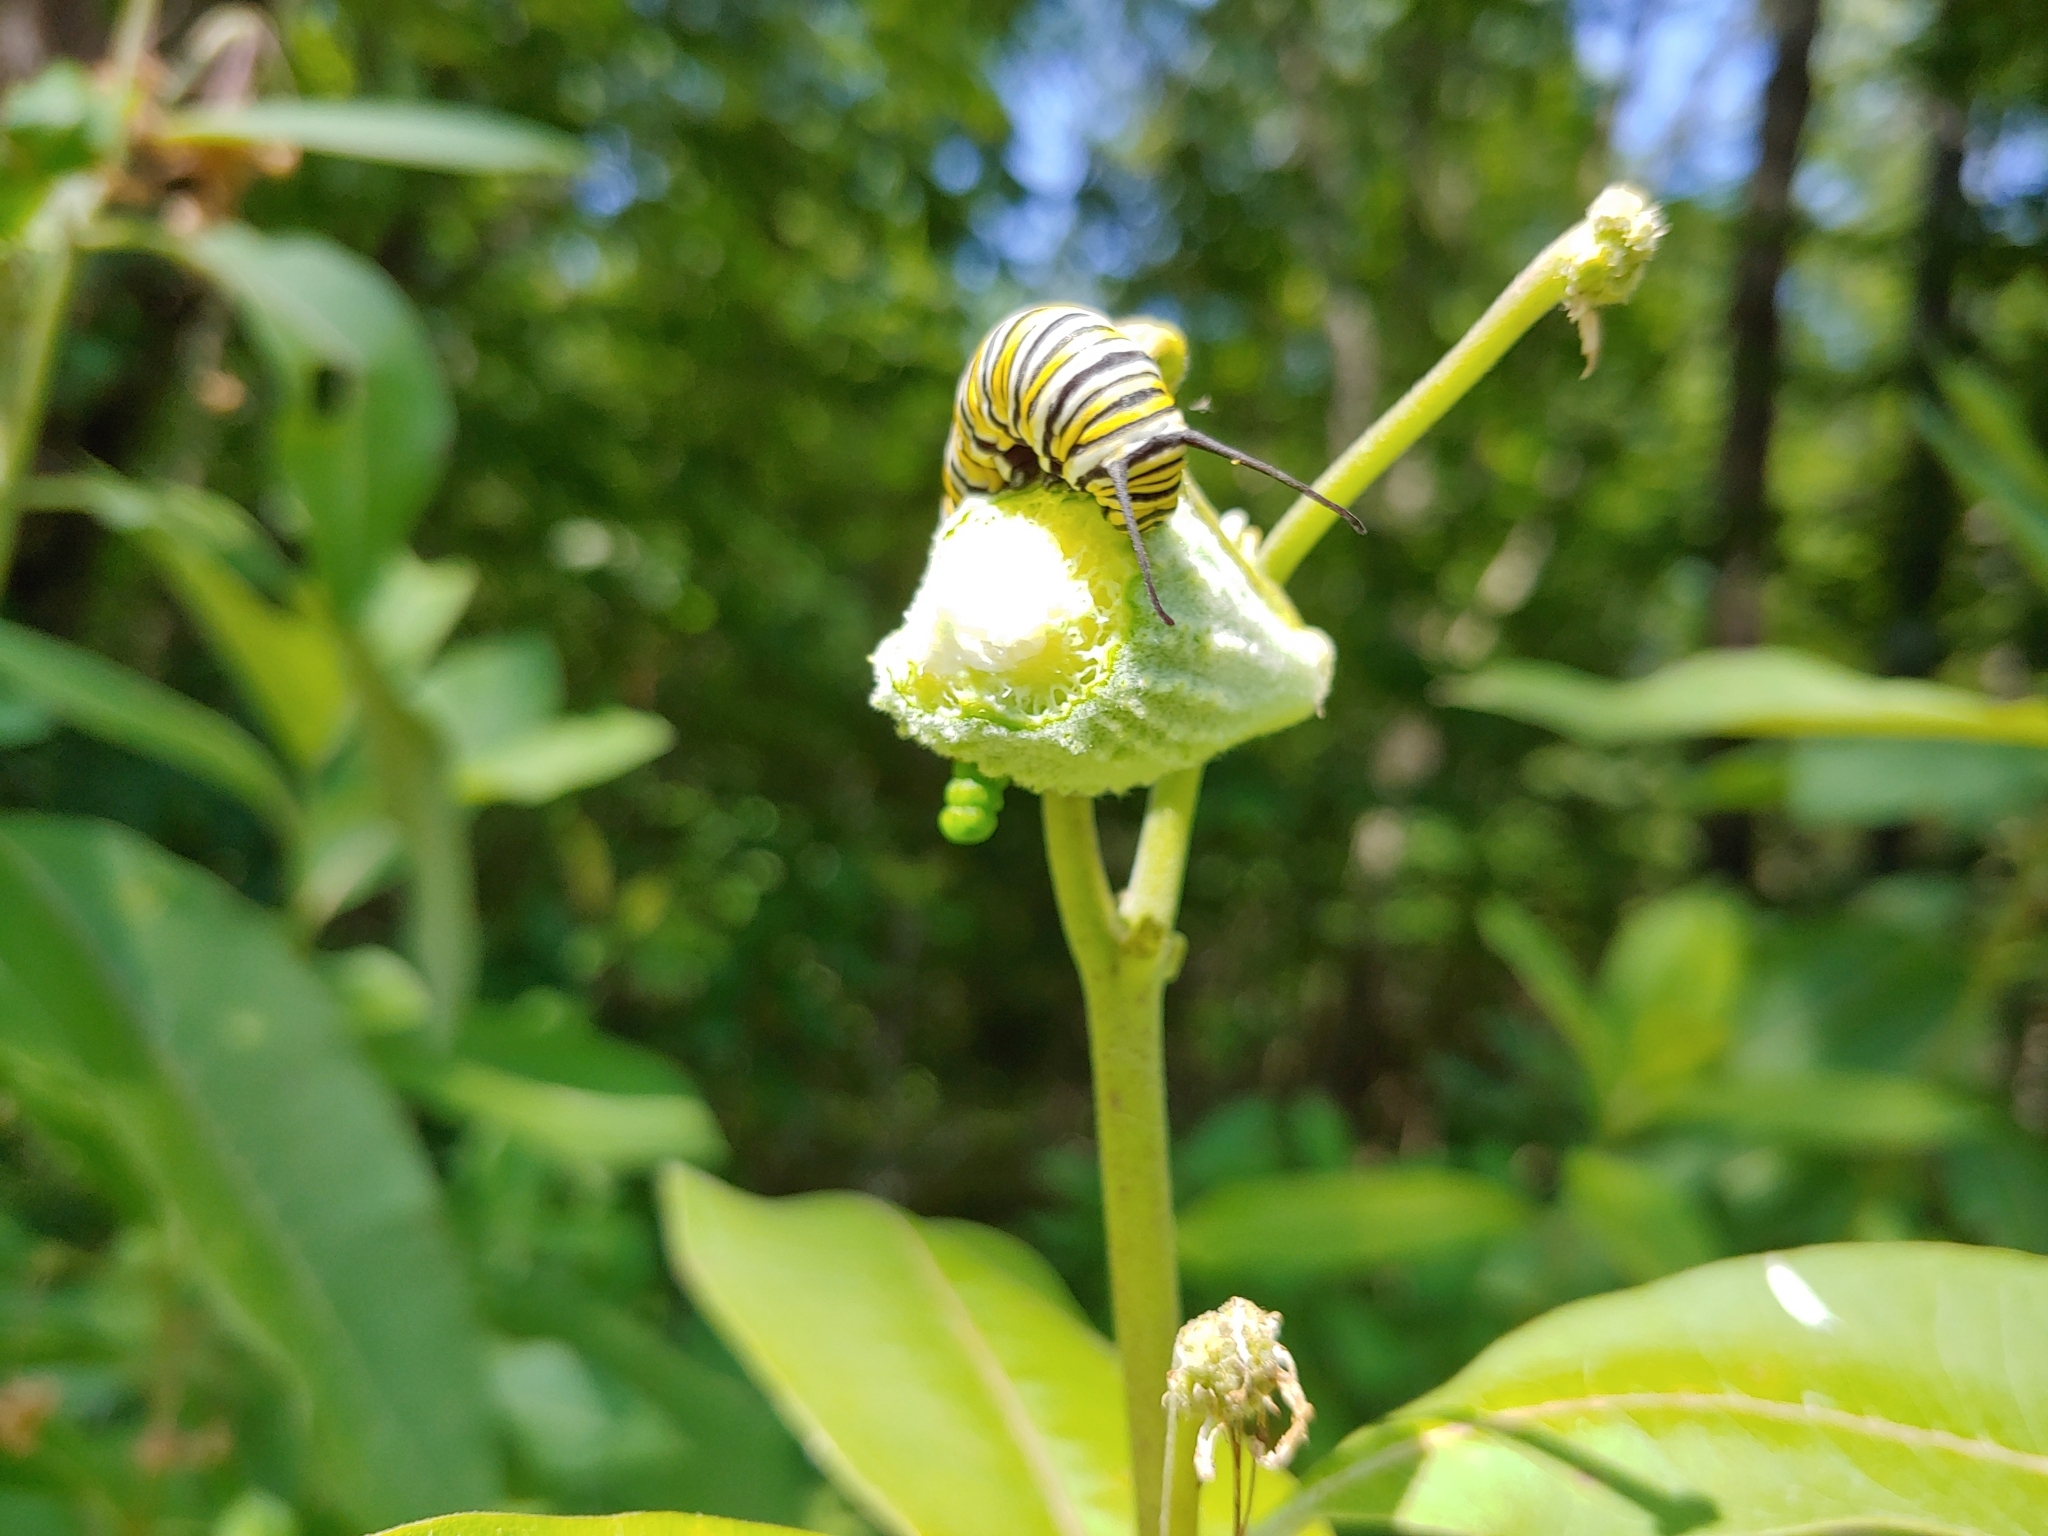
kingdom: Animalia
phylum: Arthropoda
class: Insecta
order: Lepidoptera
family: Nymphalidae
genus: Danaus
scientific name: Danaus plexippus
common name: Monarch
